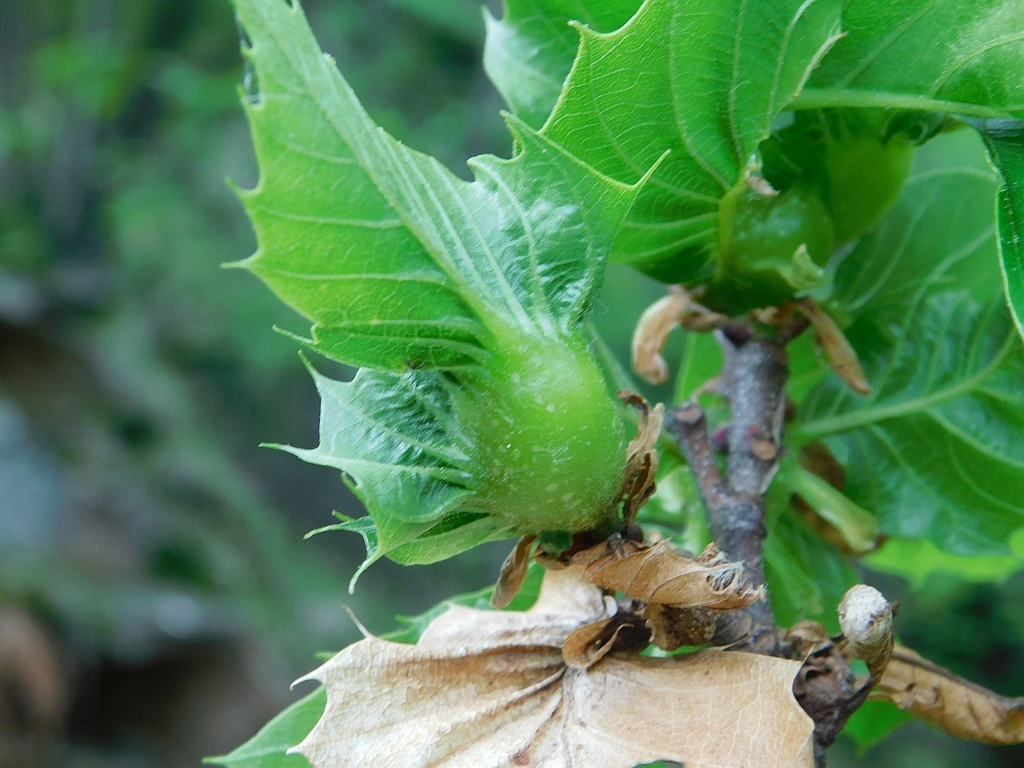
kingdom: Plantae
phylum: Tracheophyta
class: Magnoliopsida
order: Fagales
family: Fagaceae
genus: Castanea
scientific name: Castanea sativa
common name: Sweet chestnut
